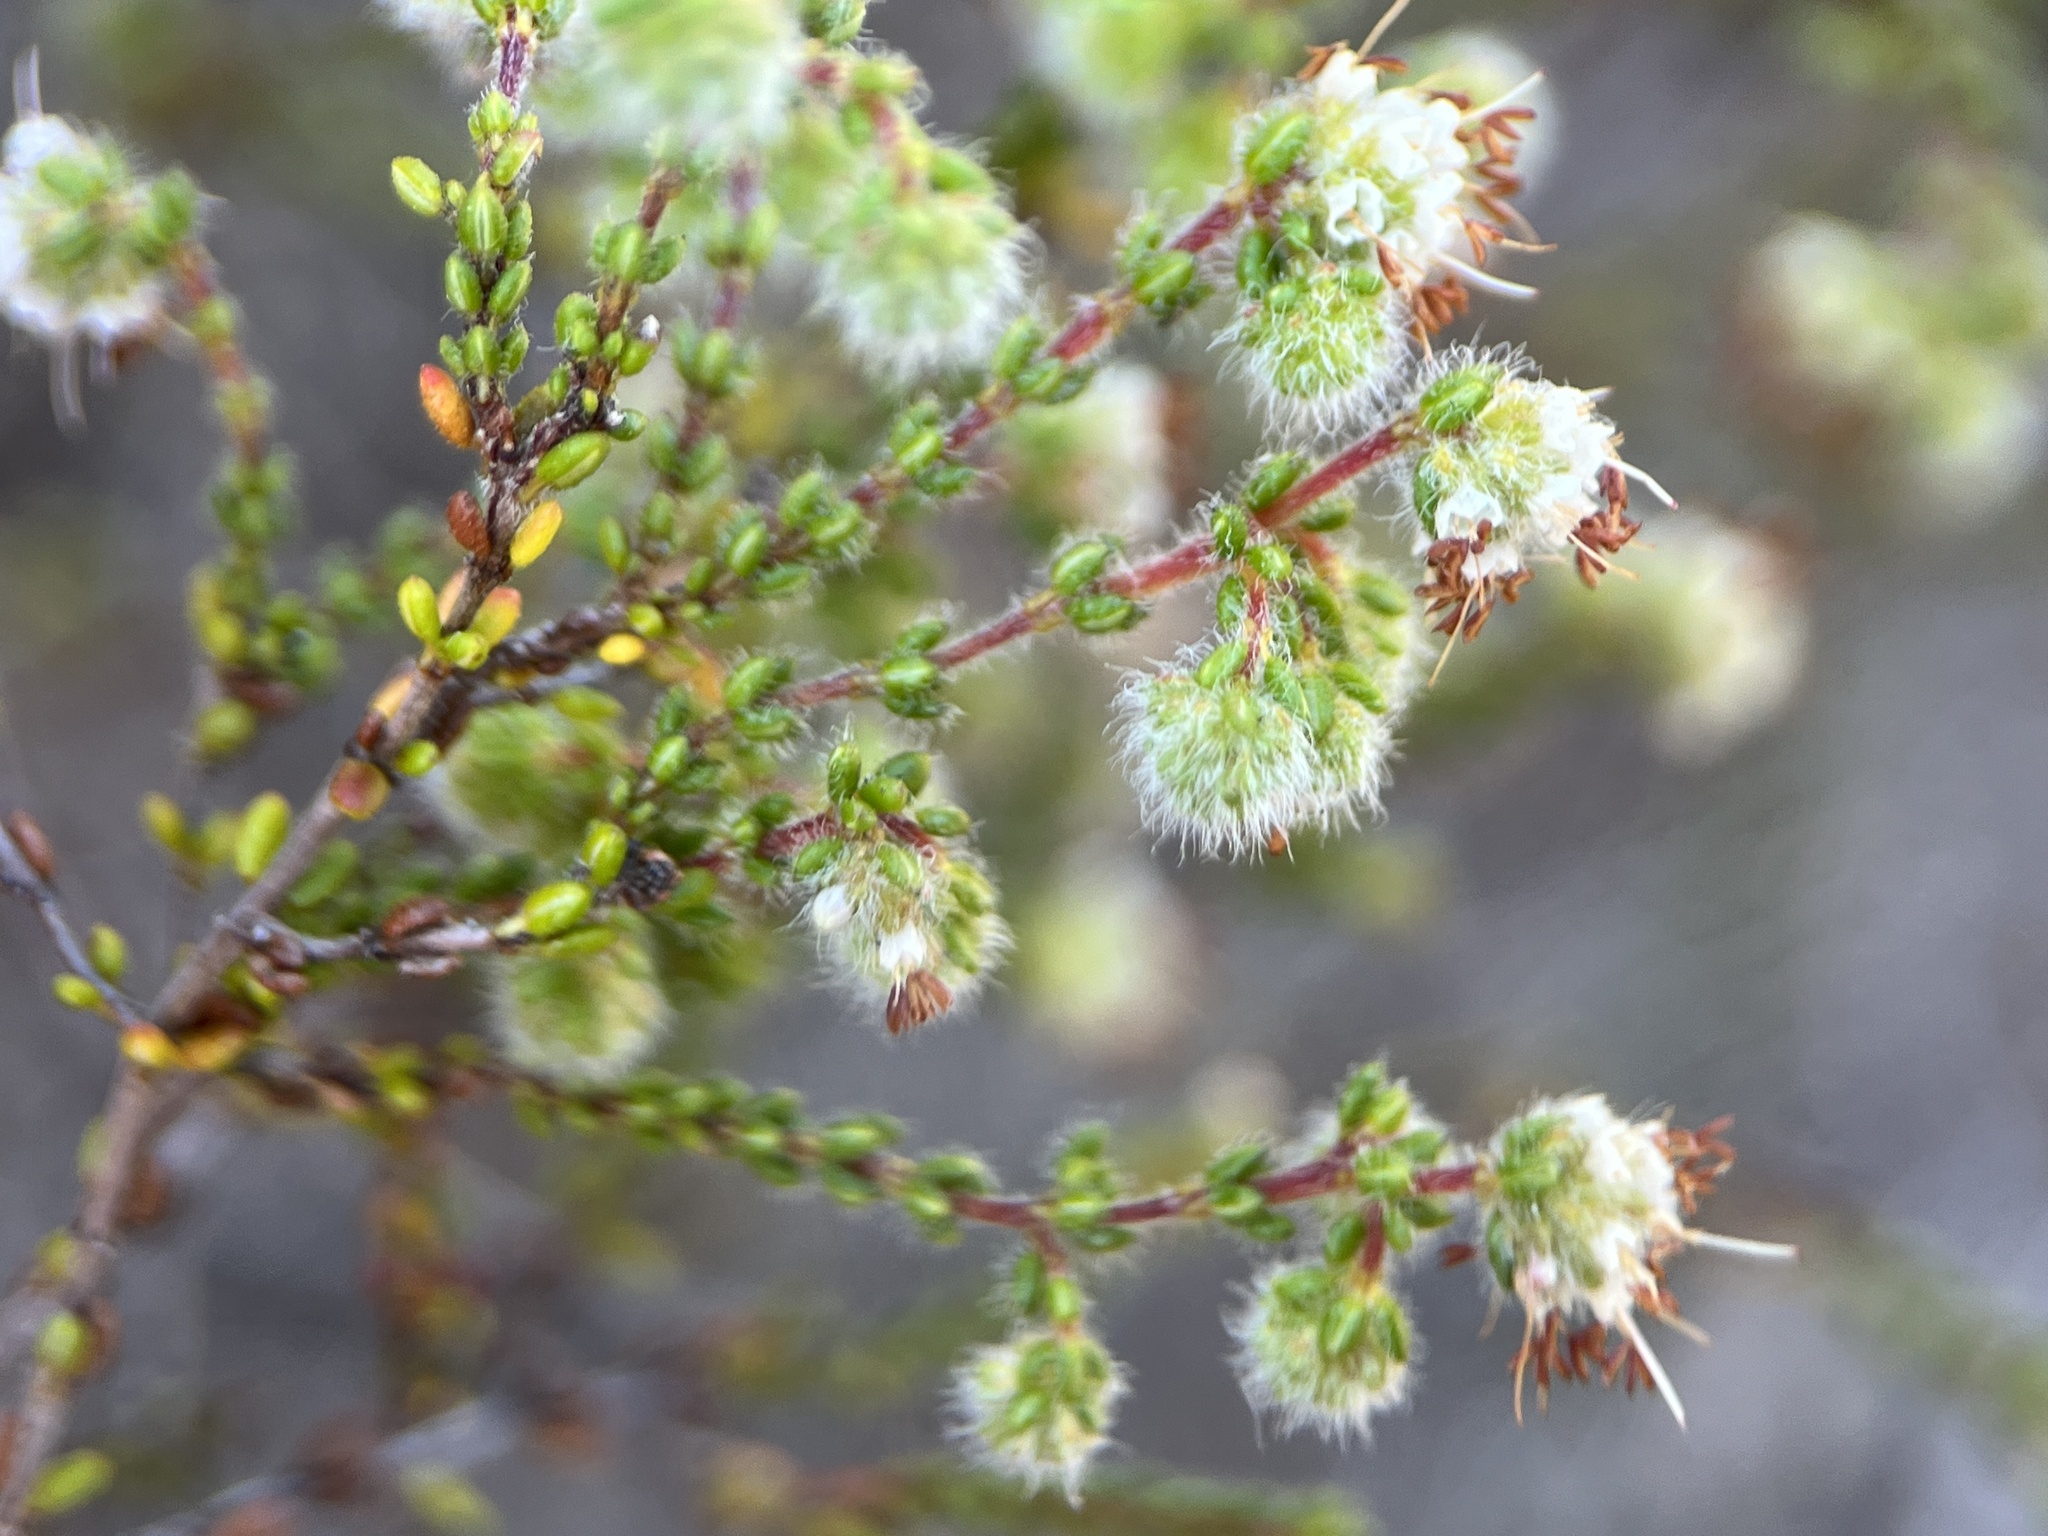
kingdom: Plantae
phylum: Tracheophyta
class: Magnoliopsida
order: Ericales
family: Ericaceae
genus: Erica
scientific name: Erica globiceps
